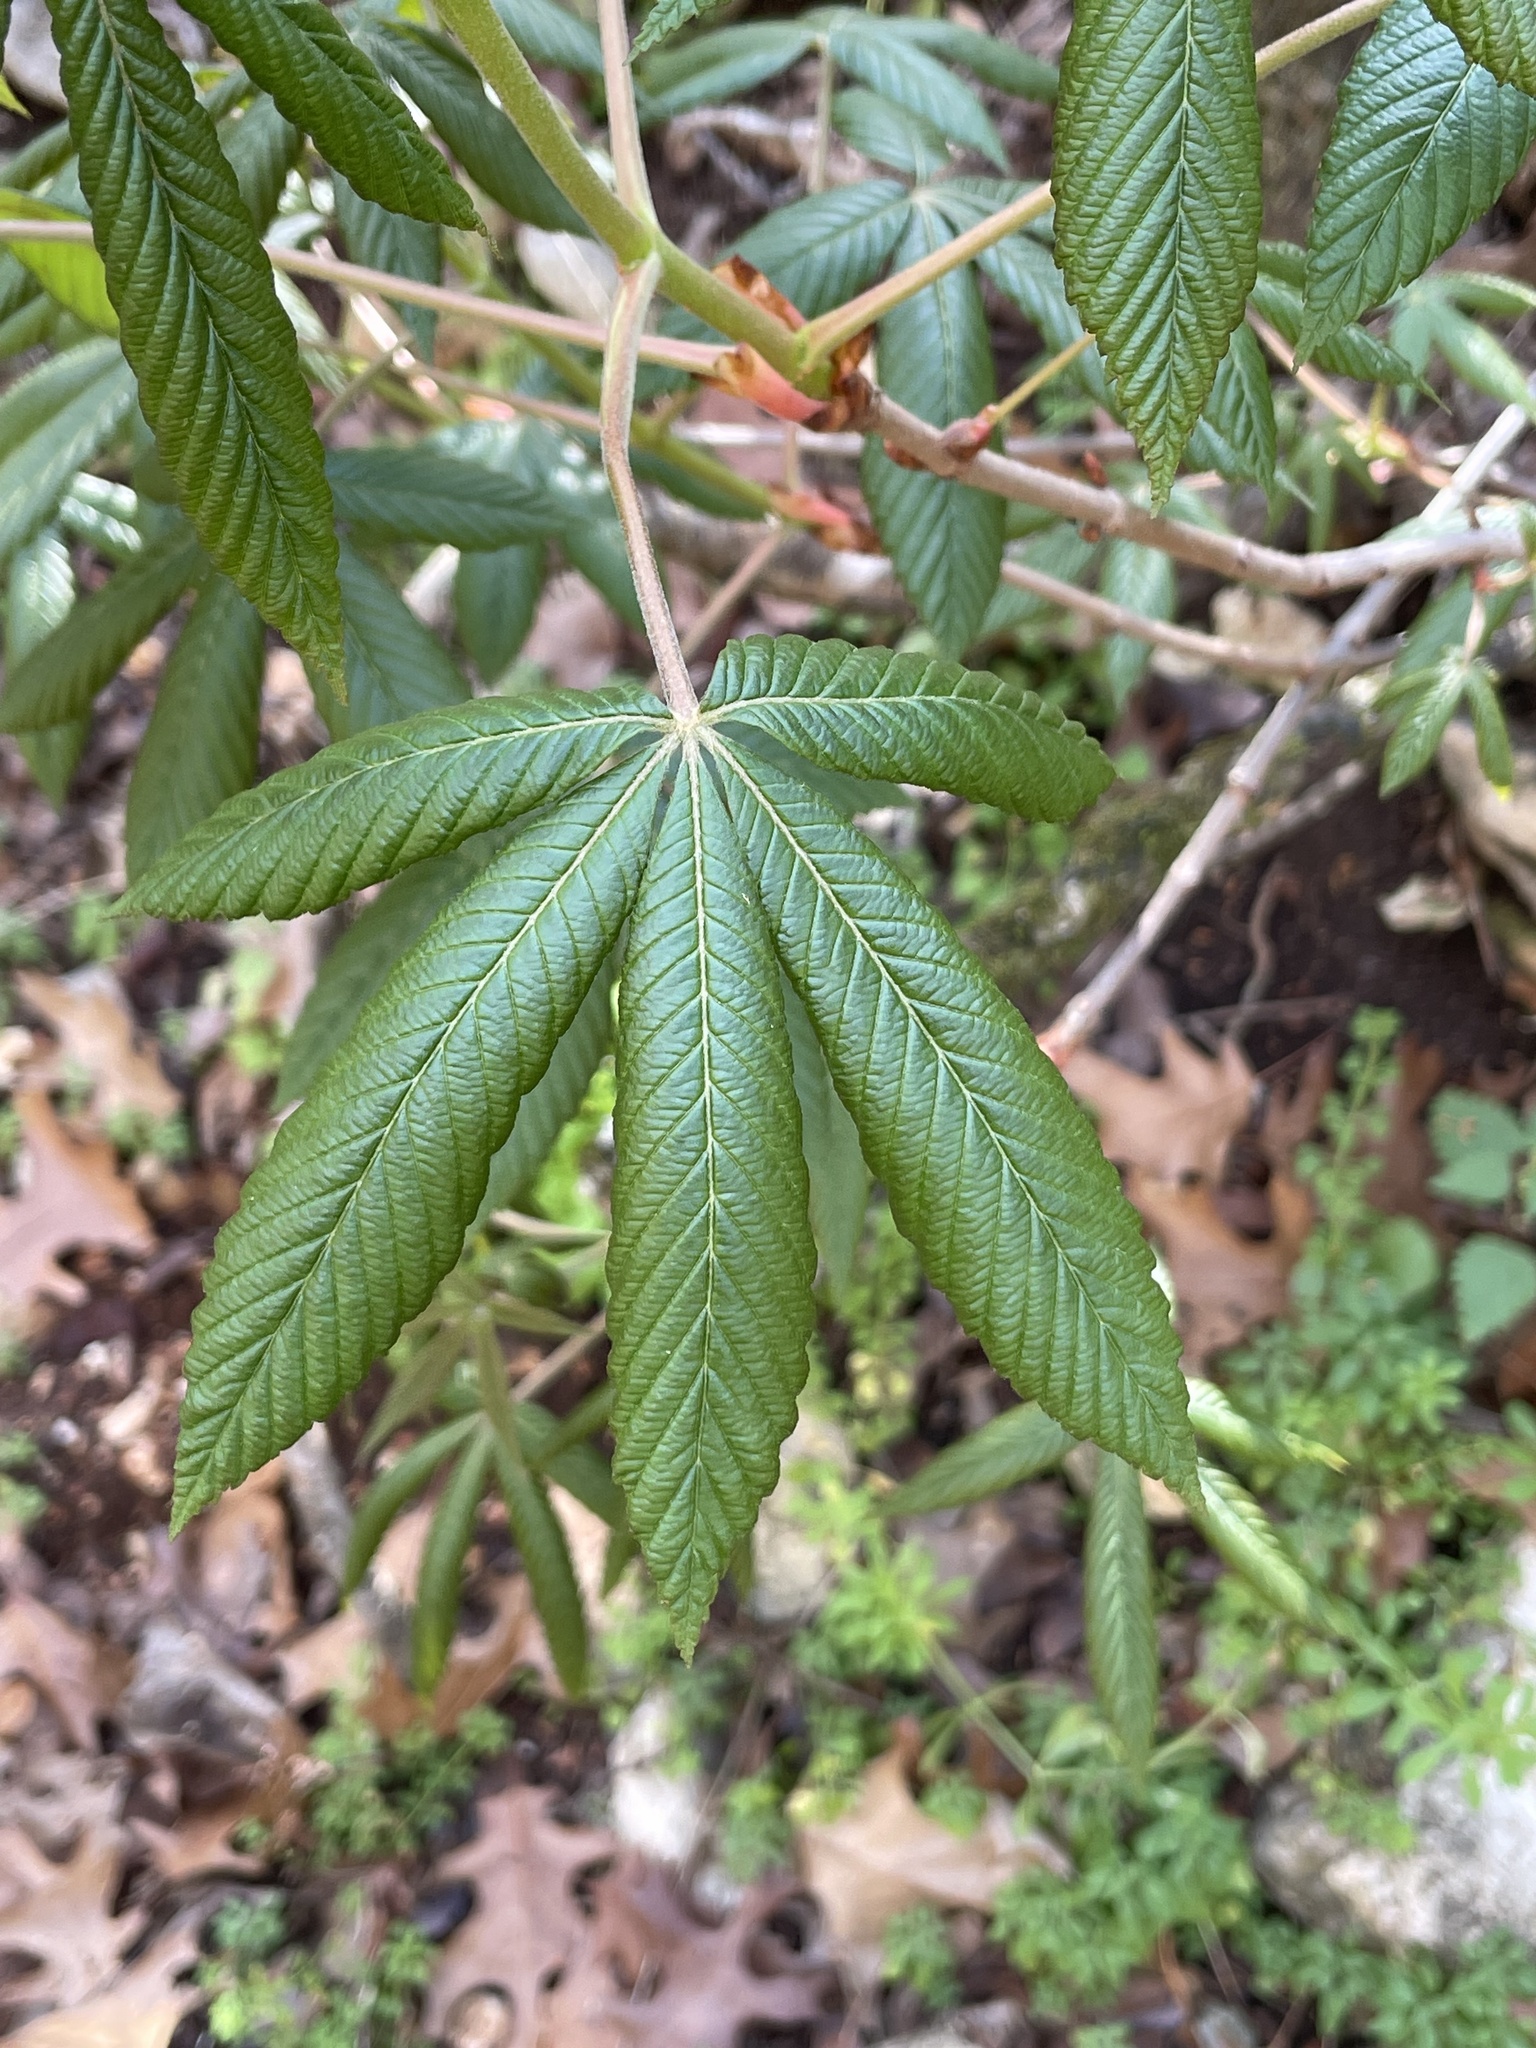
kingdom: Plantae
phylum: Tracheophyta
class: Magnoliopsida
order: Sapindales
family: Sapindaceae
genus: Aesculus
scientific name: Aesculus pavia
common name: Red buckeye
